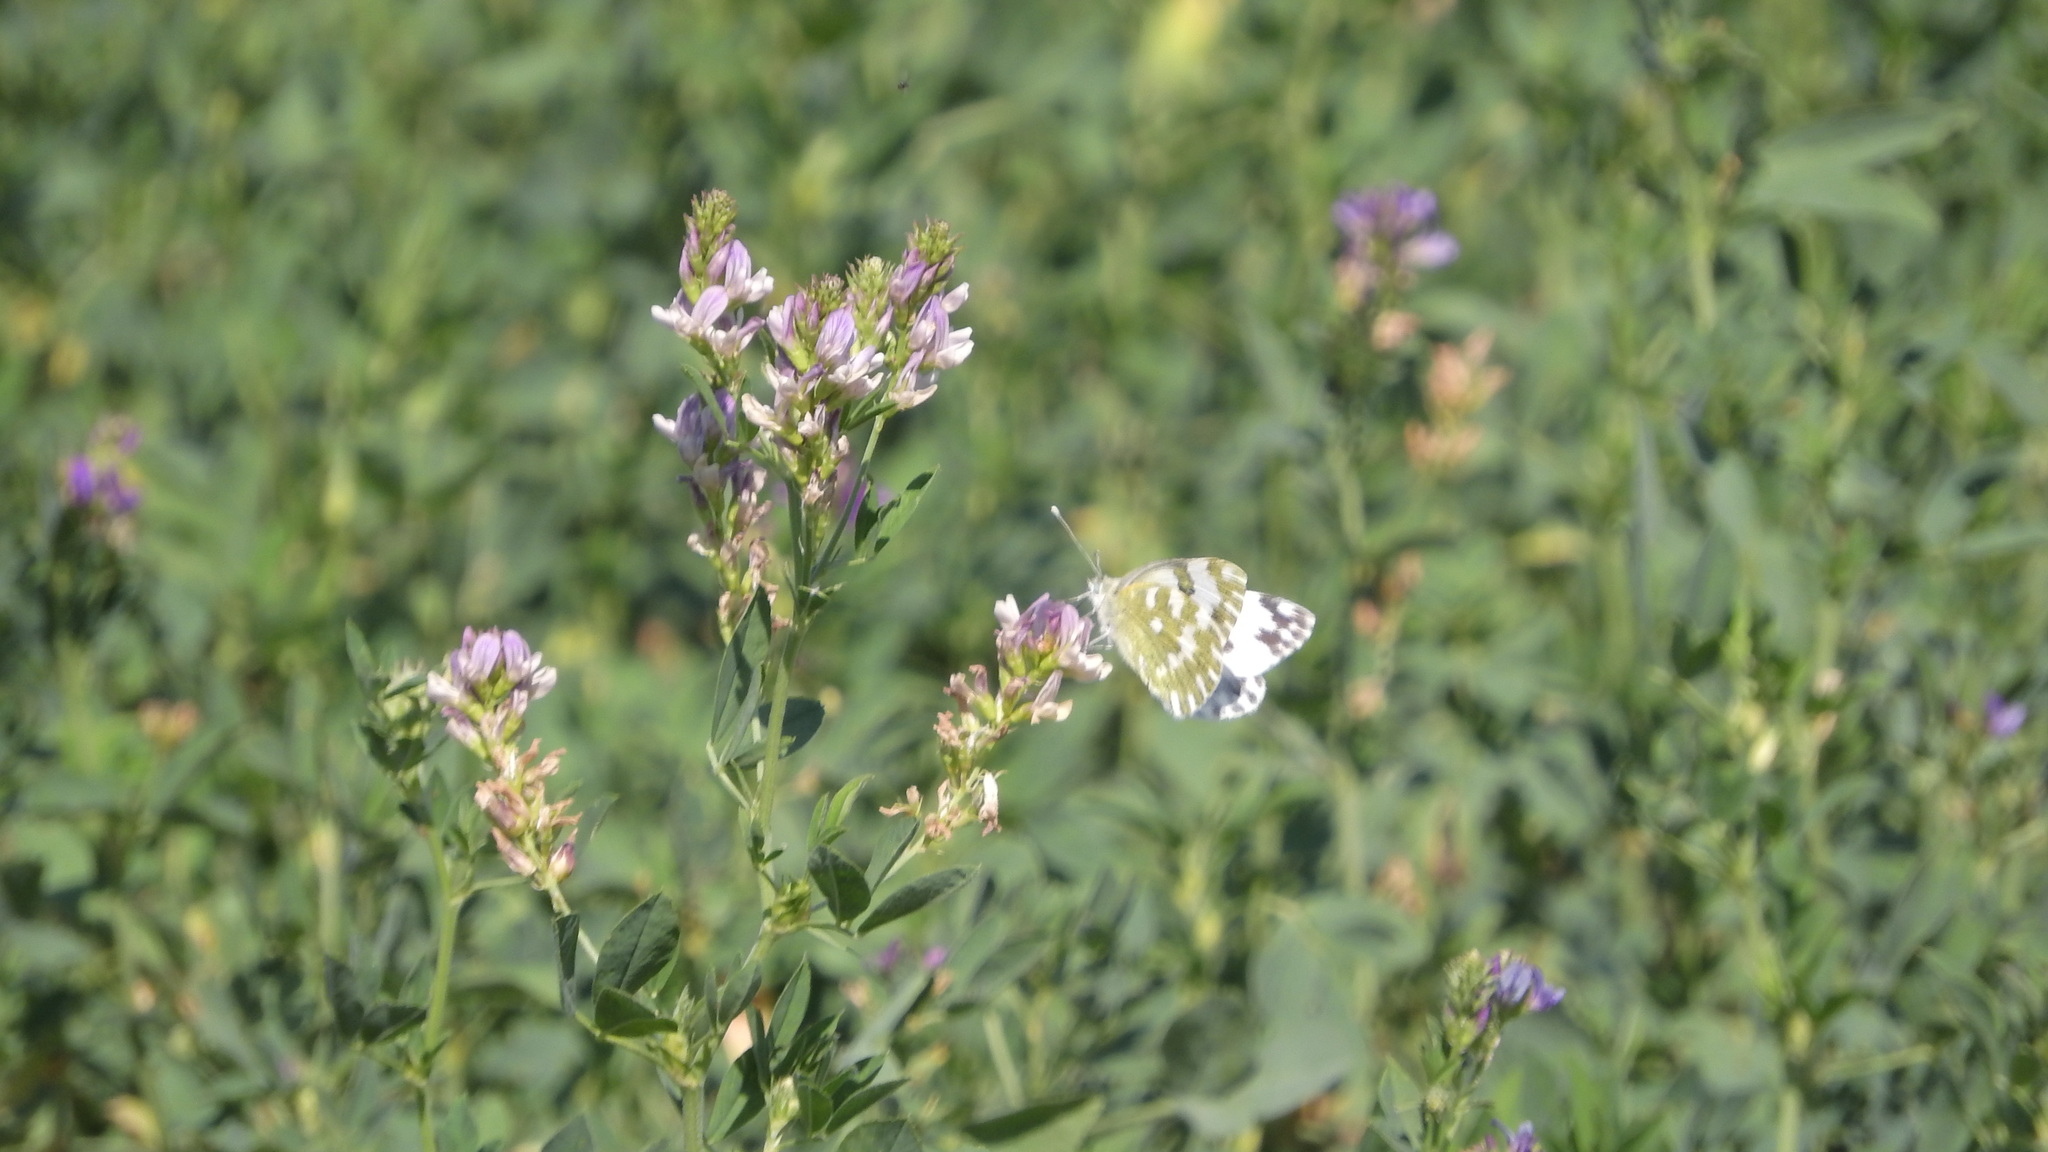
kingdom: Animalia
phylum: Arthropoda
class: Insecta
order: Lepidoptera
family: Pieridae
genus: Pontia
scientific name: Pontia edusa
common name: Eastern bath white
